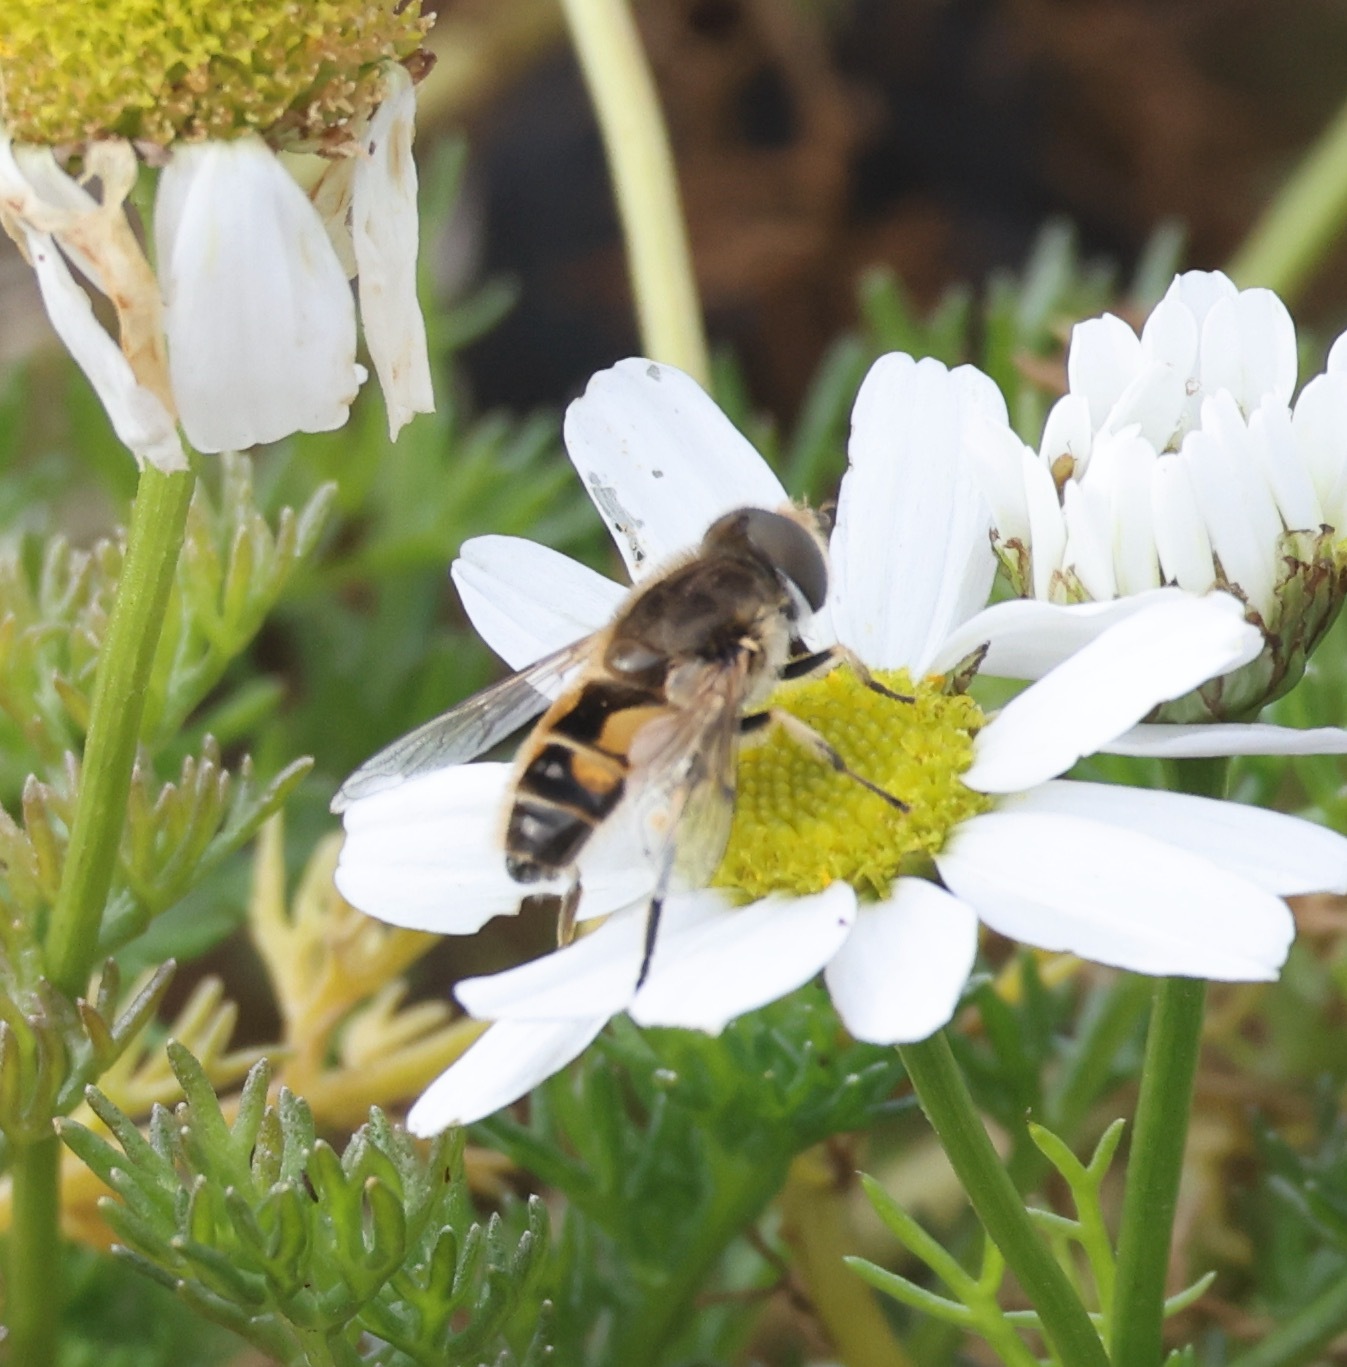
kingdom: Animalia
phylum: Arthropoda
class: Insecta
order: Diptera
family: Syrphidae
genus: Eristalis
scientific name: Eristalis arbustorum
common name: Hover fly
